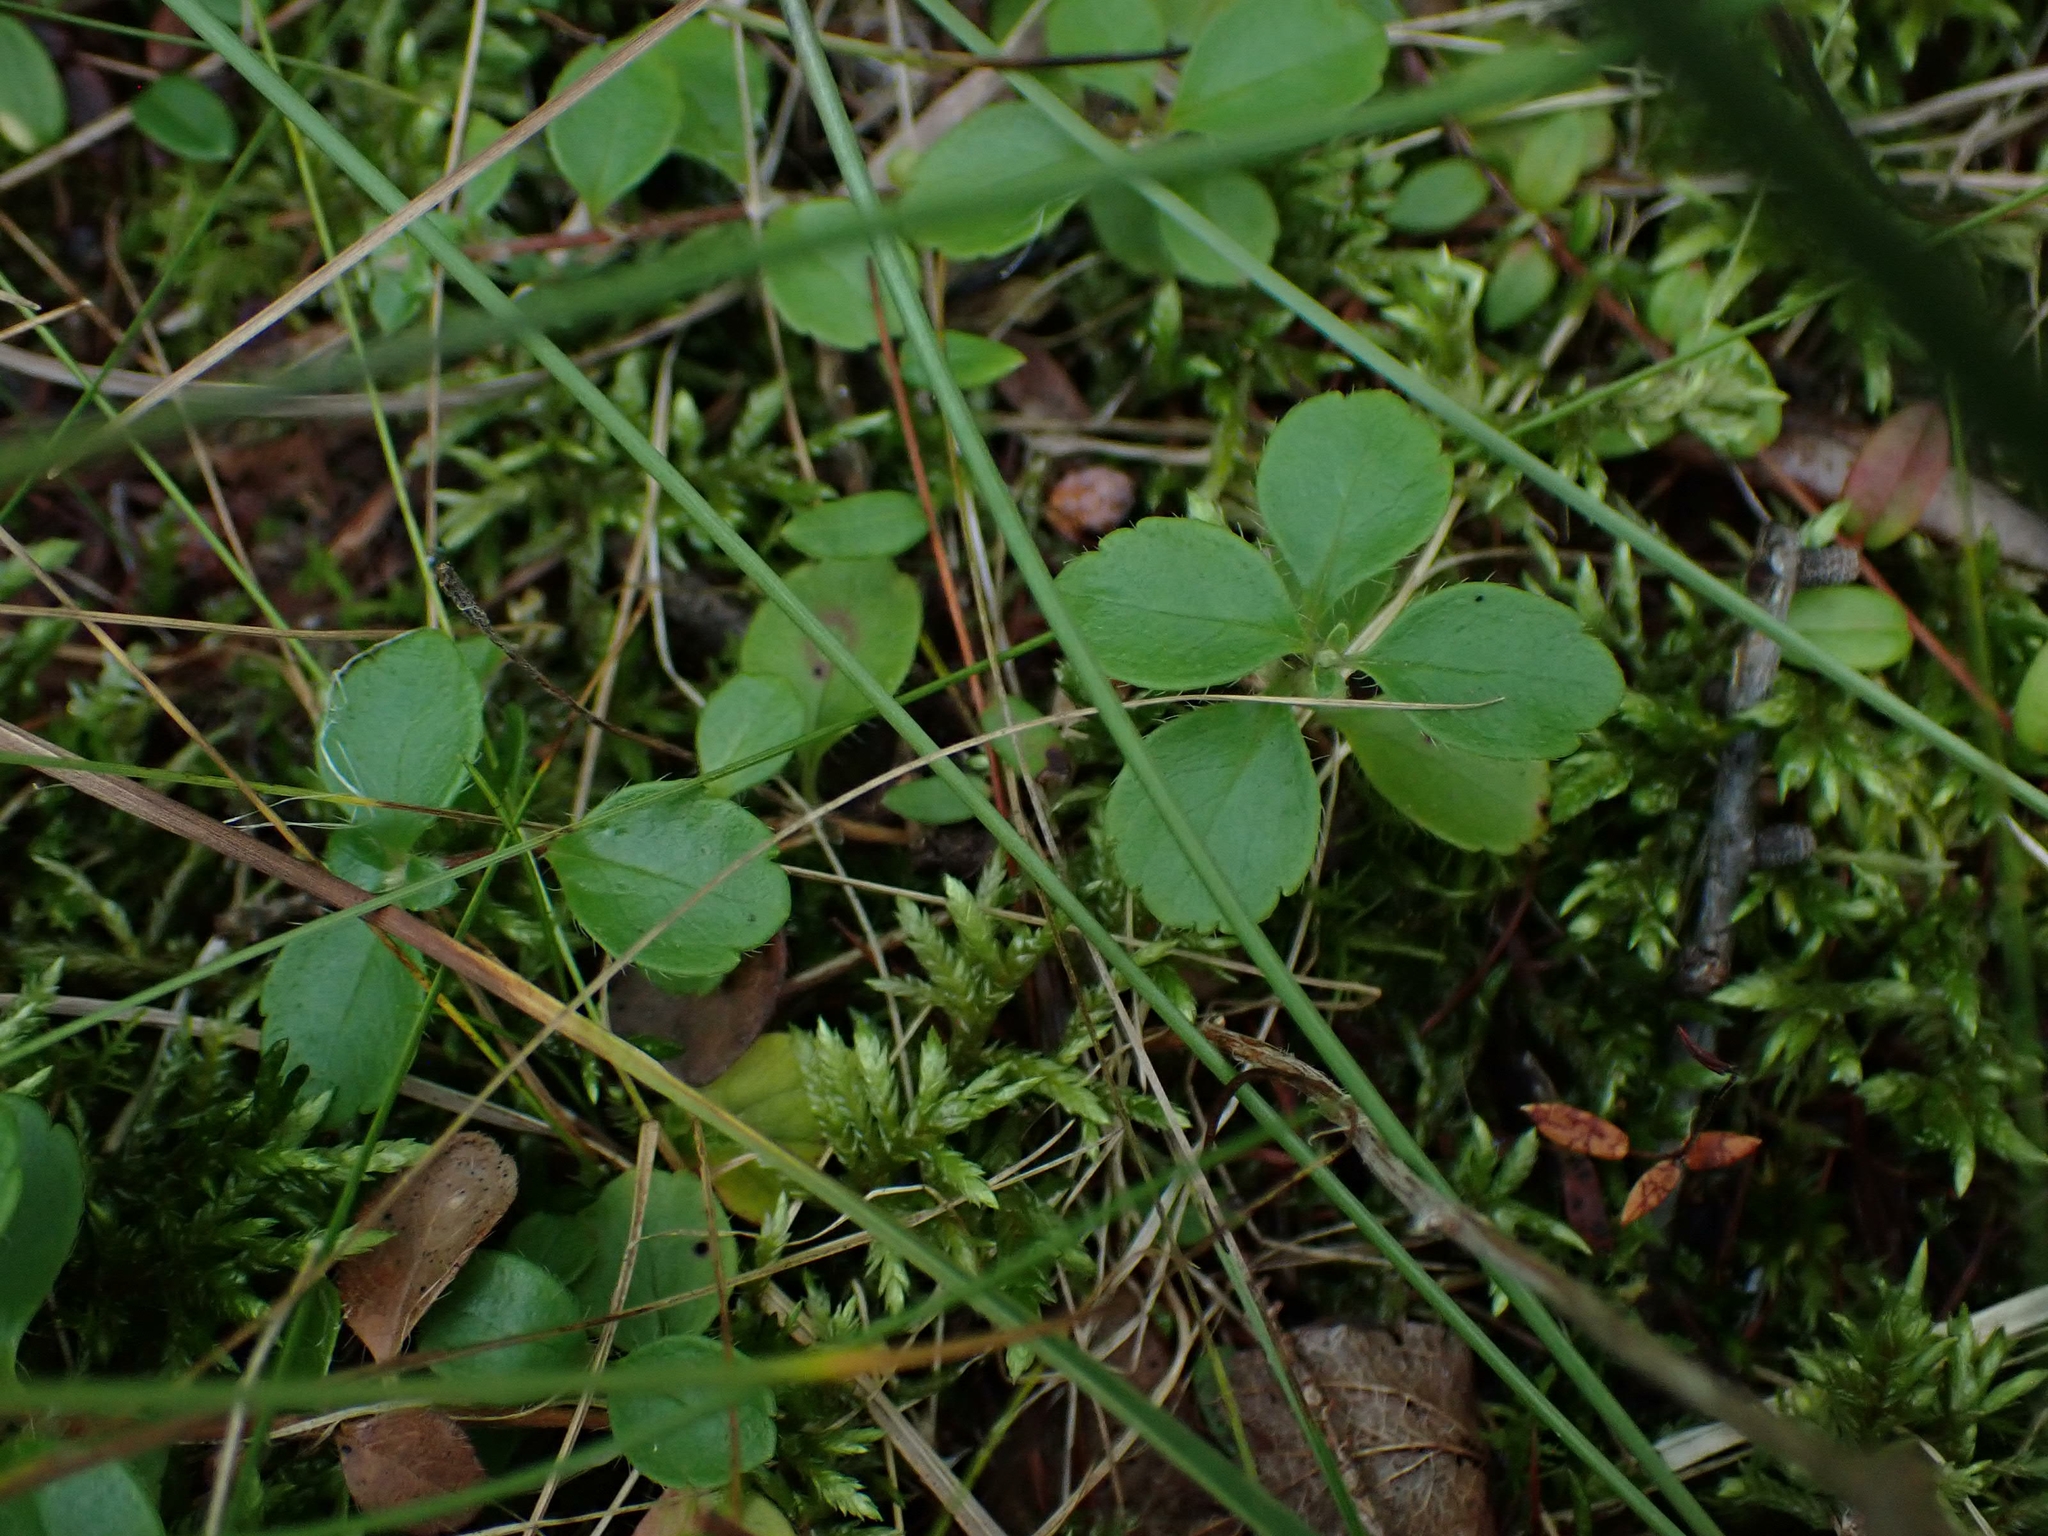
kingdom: Plantae
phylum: Tracheophyta
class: Magnoliopsida
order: Dipsacales
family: Caprifoliaceae
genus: Linnaea
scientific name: Linnaea borealis
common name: Twinflower
